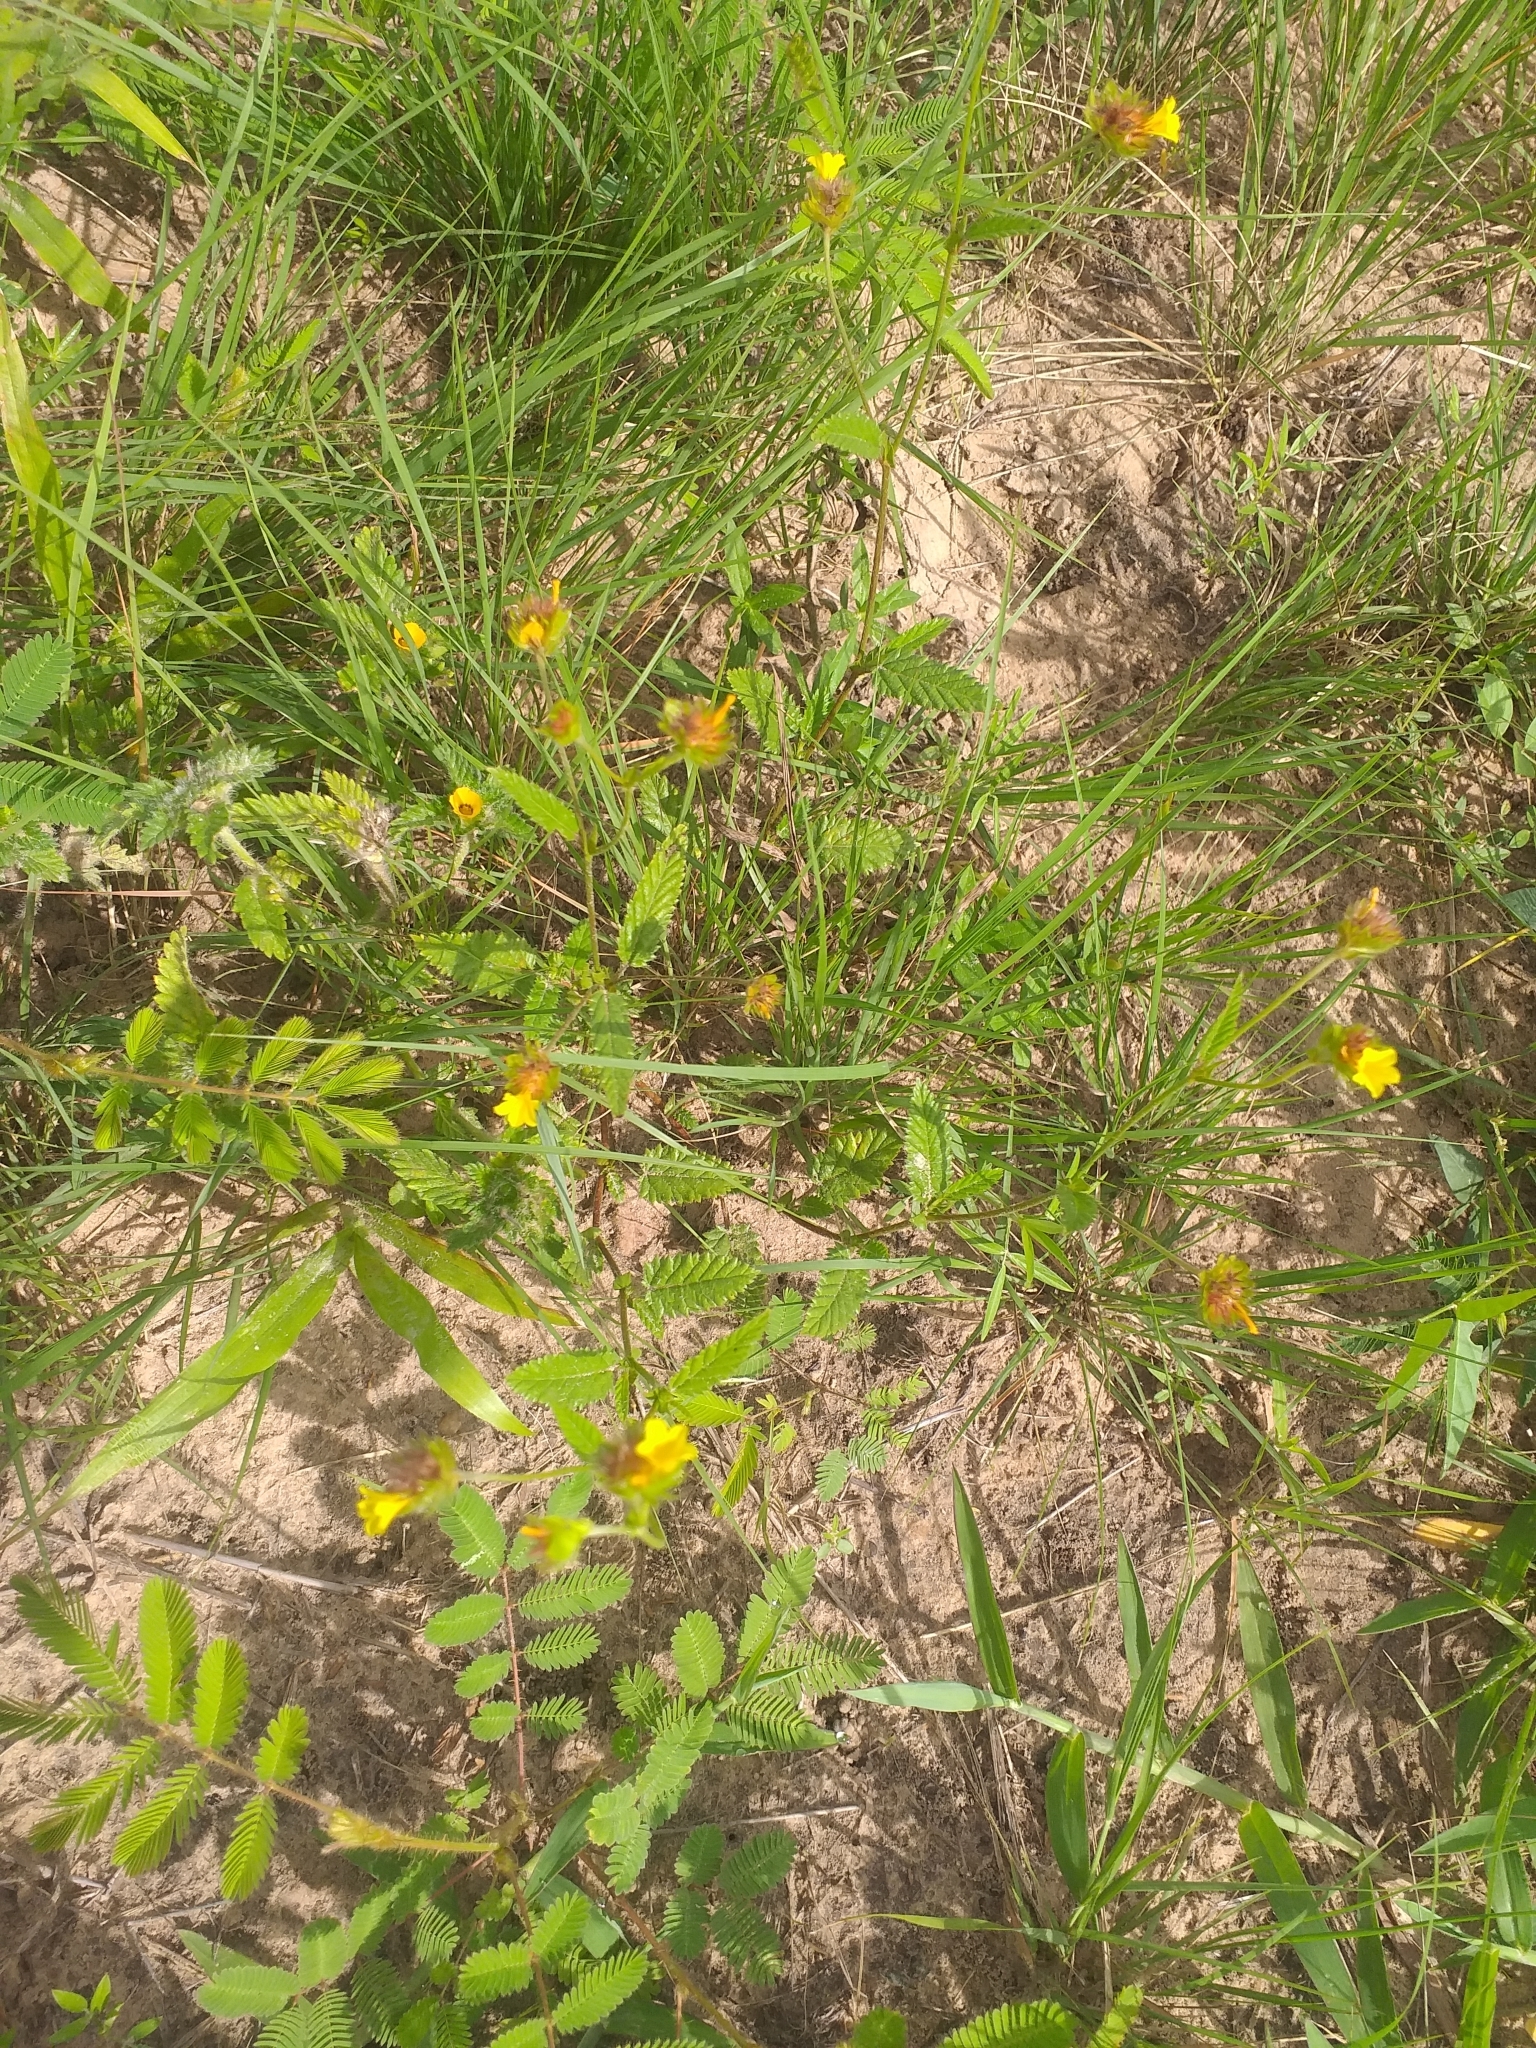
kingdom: Plantae
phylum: Tracheophyta
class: Magnoliopsida
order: Malvales
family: Malvaceae
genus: Waltheria
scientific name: Waltheria operculata
